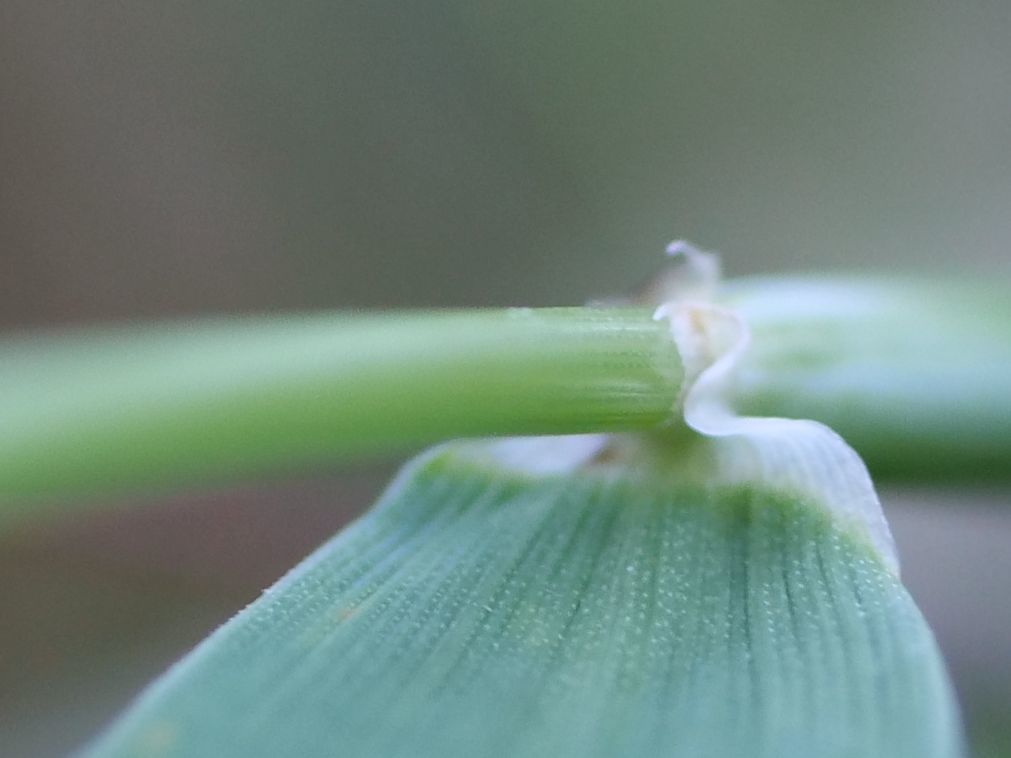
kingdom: Plantae
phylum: Tracheophyta
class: Liliopsida
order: Poales
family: Poaceae
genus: Hordeum
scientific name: Hordeum murinum
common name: Wall barley
